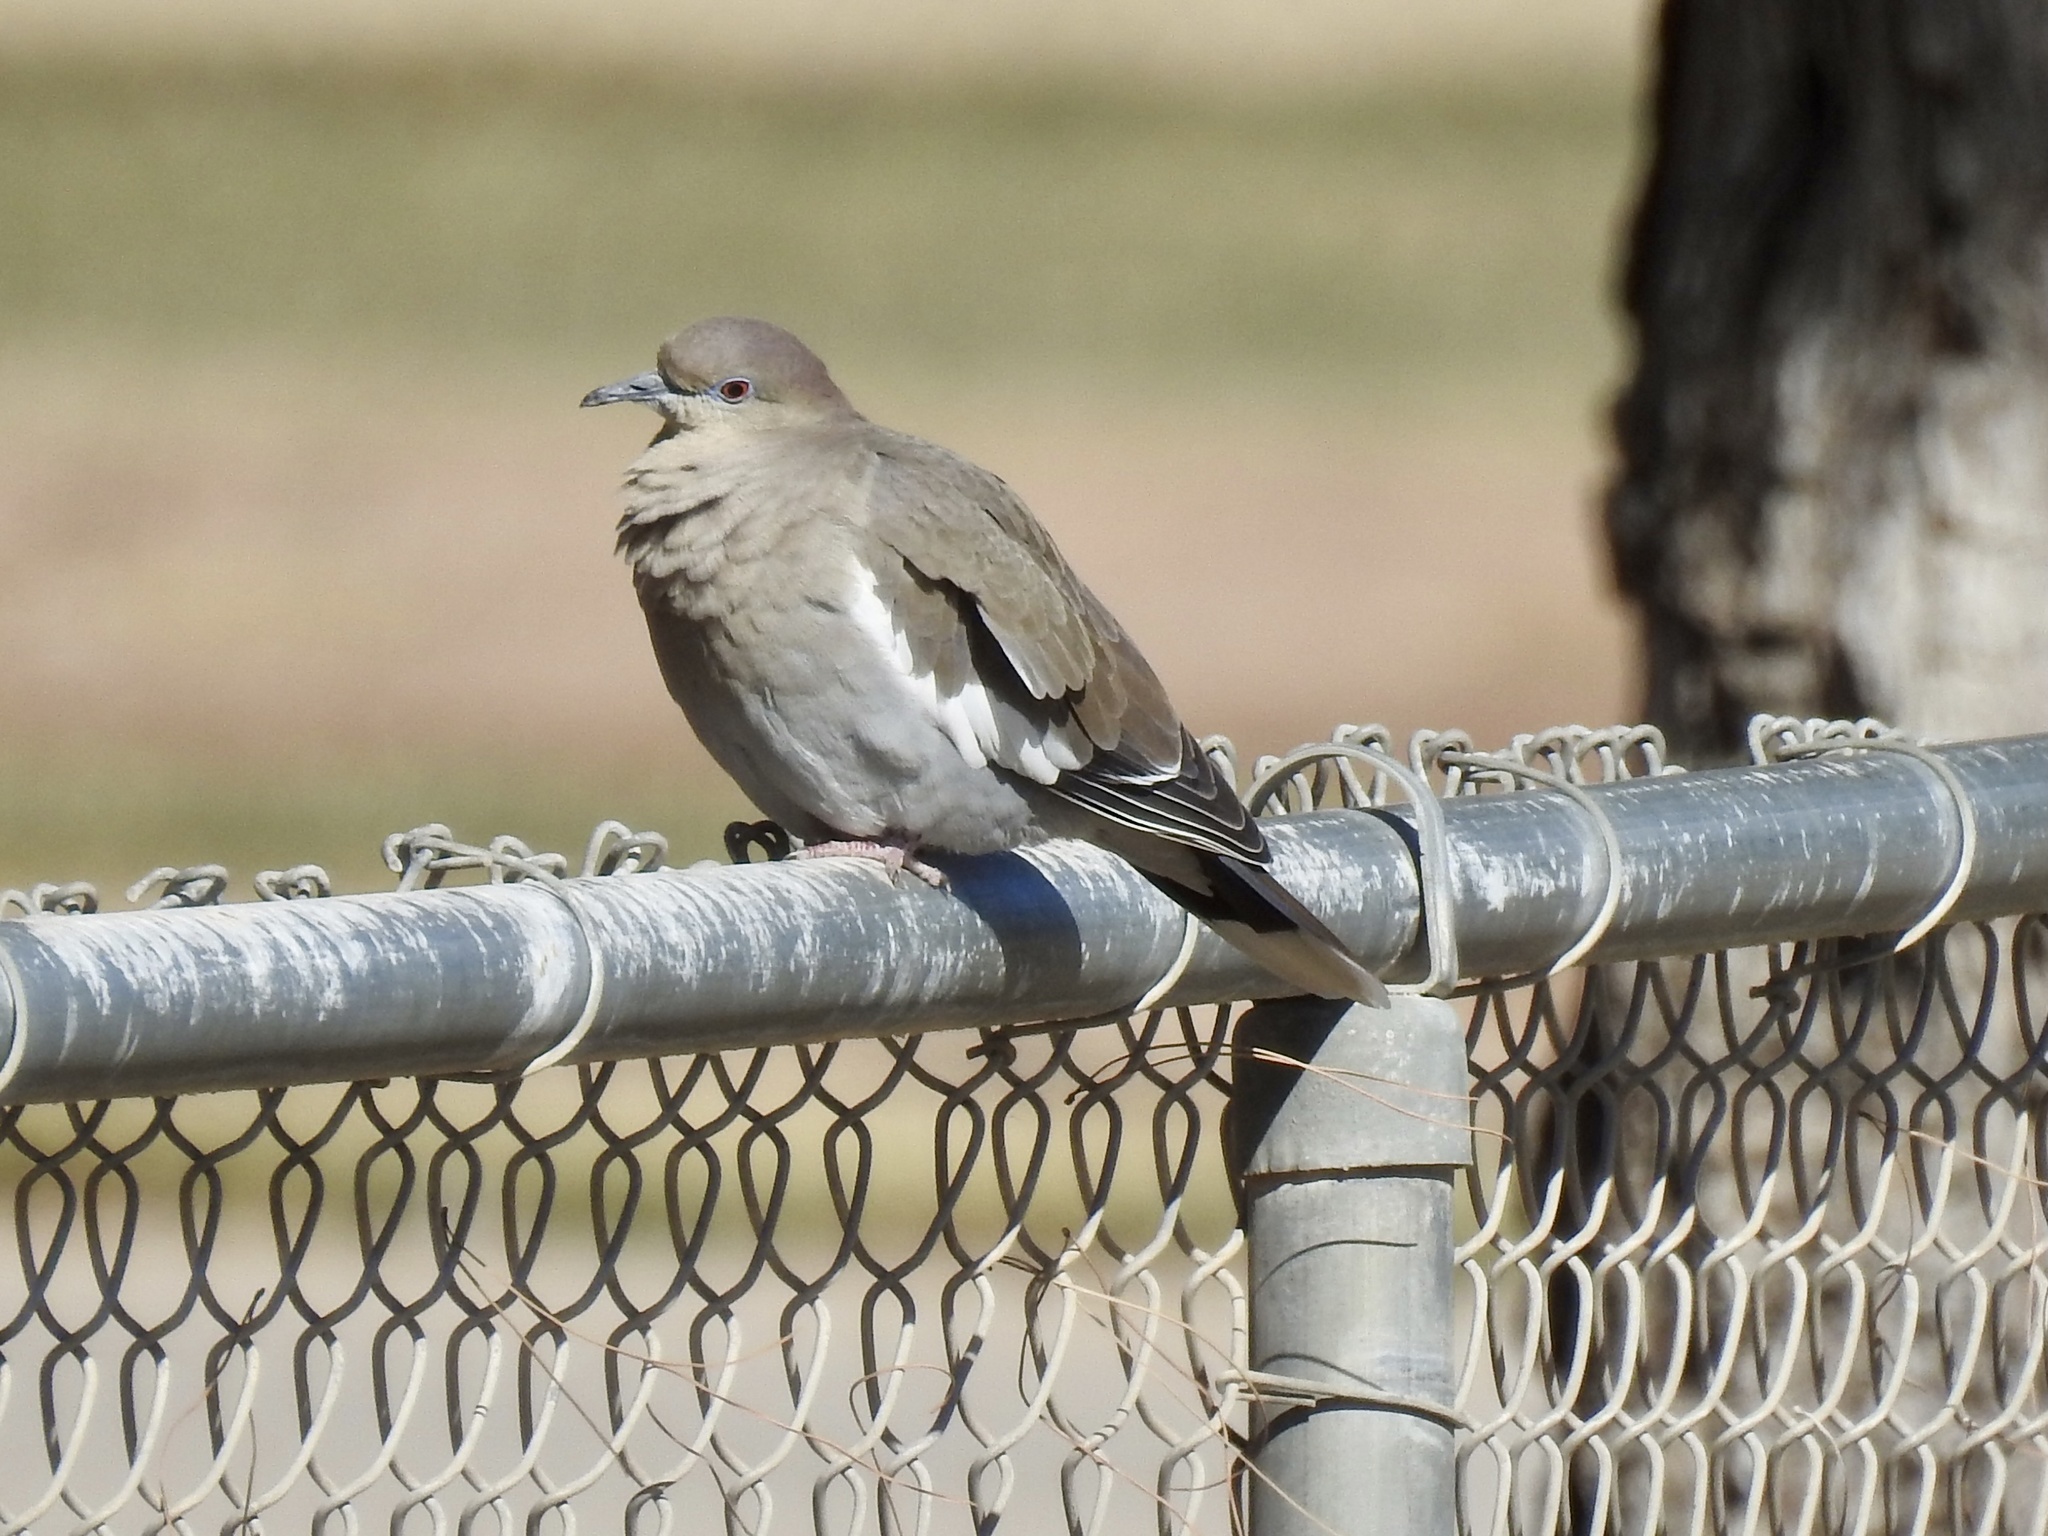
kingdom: Animalia
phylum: Chordata
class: Aves
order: Columbiformes
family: Columbidae
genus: Zenaida
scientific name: Zenaida asiatica
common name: White-winged dove
